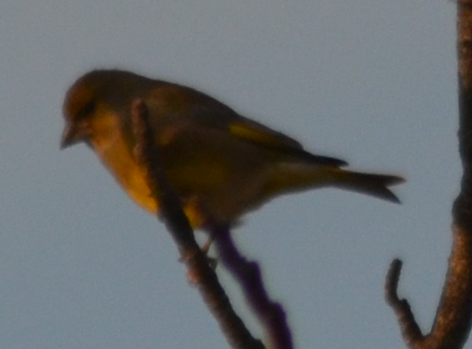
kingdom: Plantae
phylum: Tracheophyta
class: Liliopsida
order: Poales
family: Poaceae
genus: Chloris
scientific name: Chloris chloris
